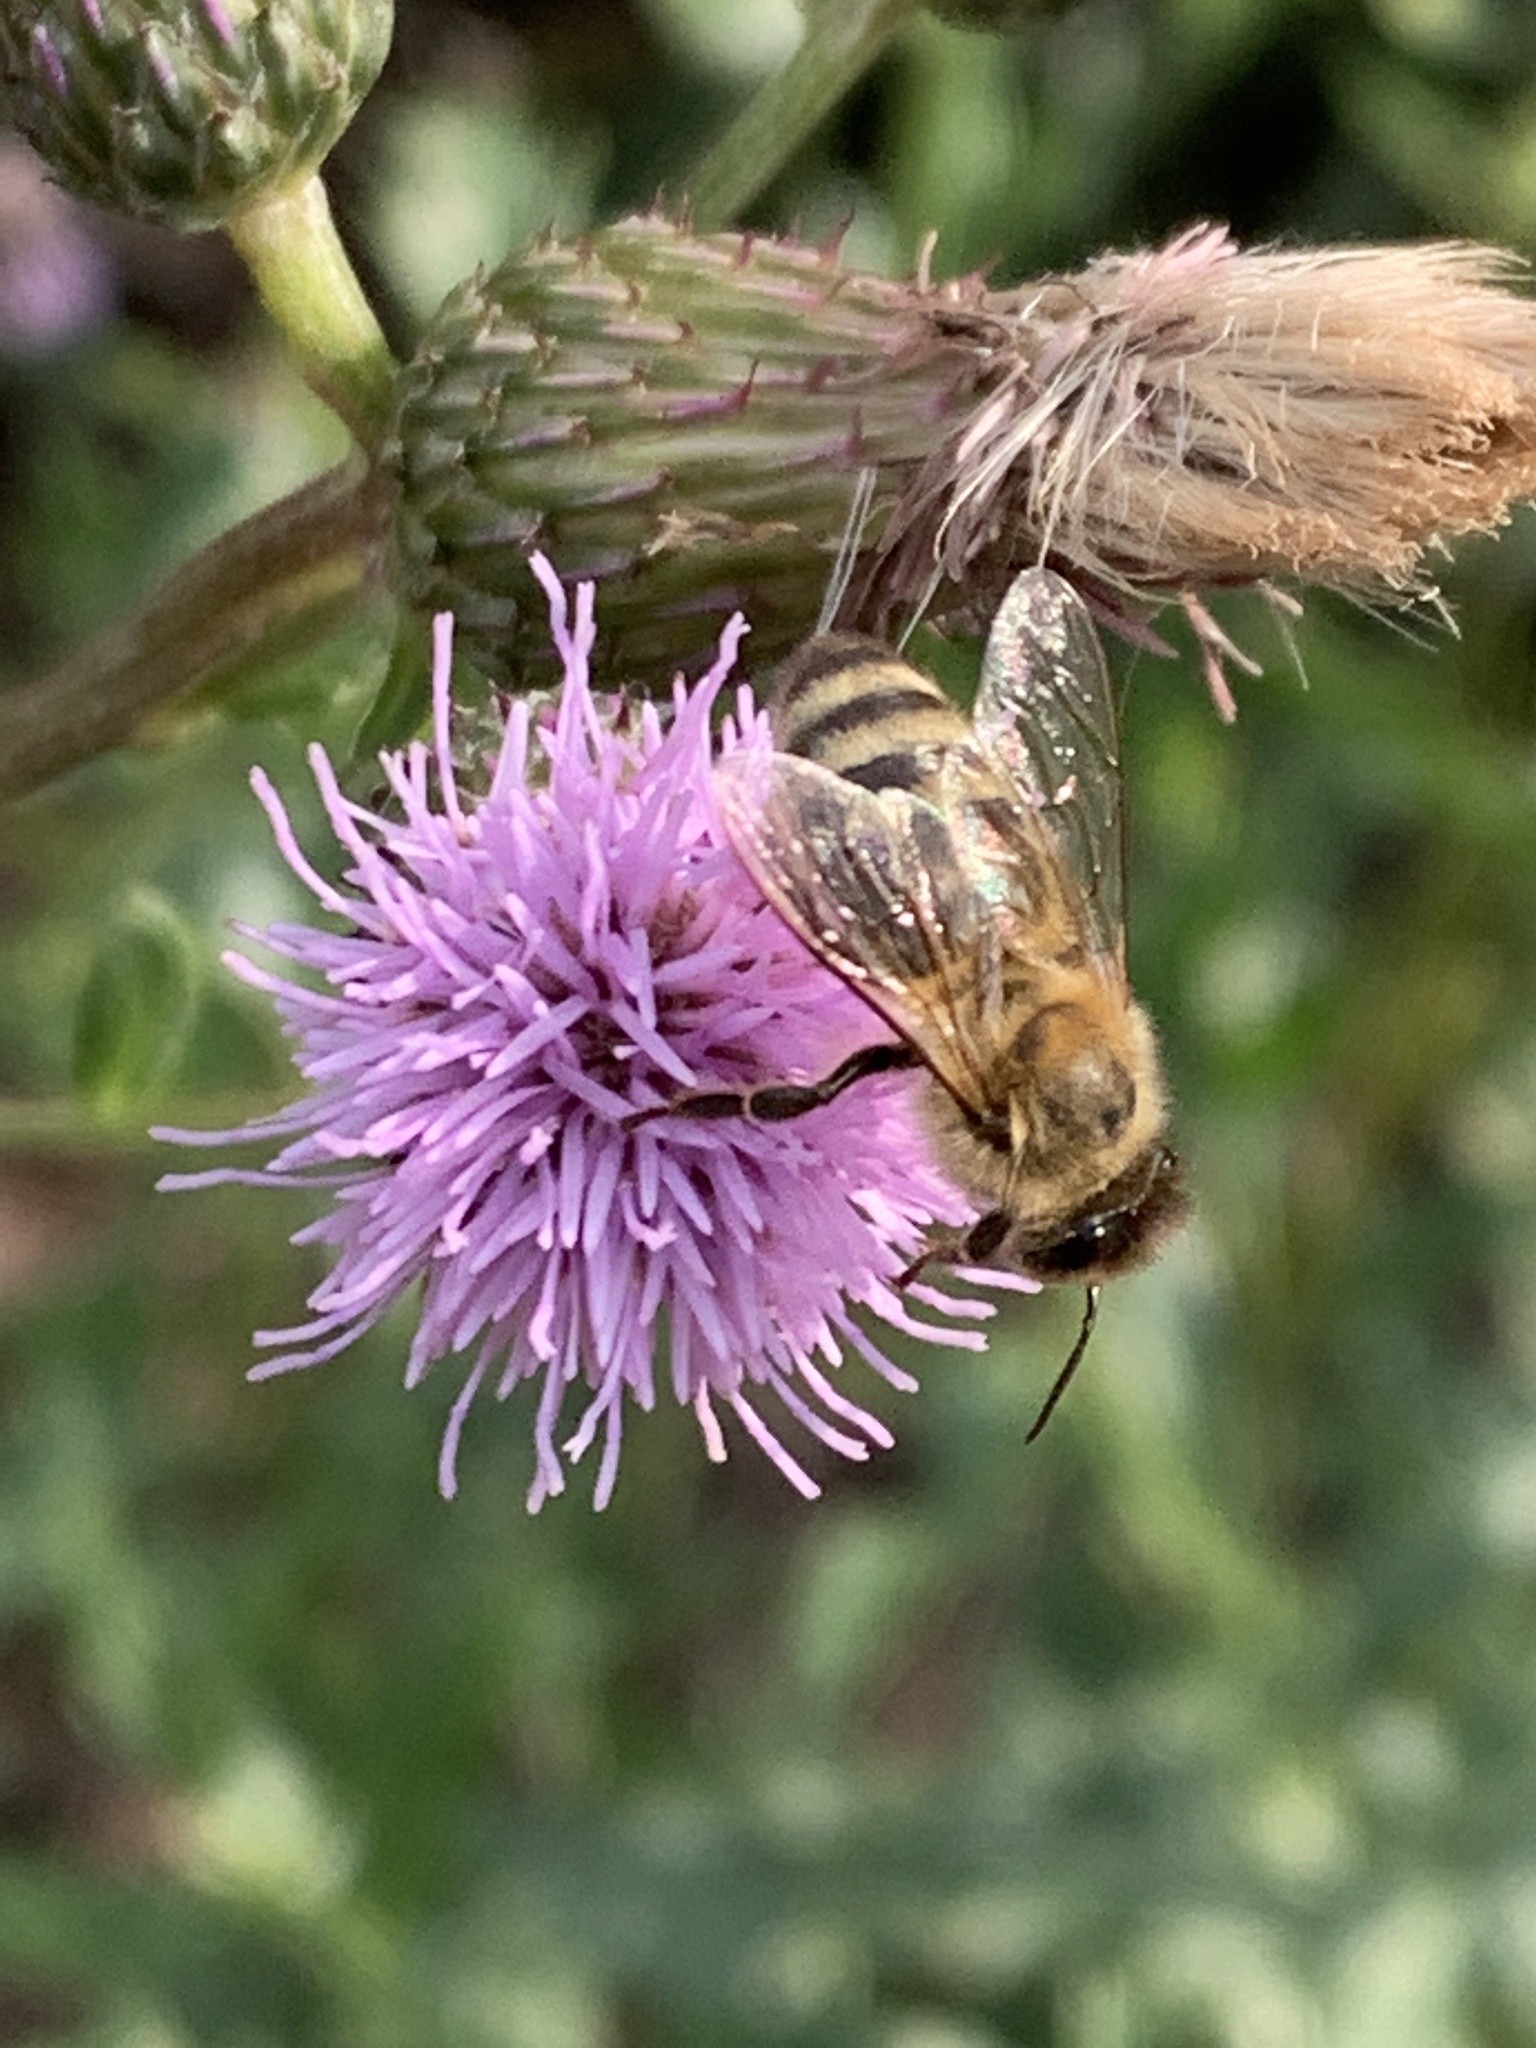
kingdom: Animalia
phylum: Arthropoda
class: Insecta
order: Hymenoptera
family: Apidae
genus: Apis
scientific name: Apis mellifera
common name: Honey bee
